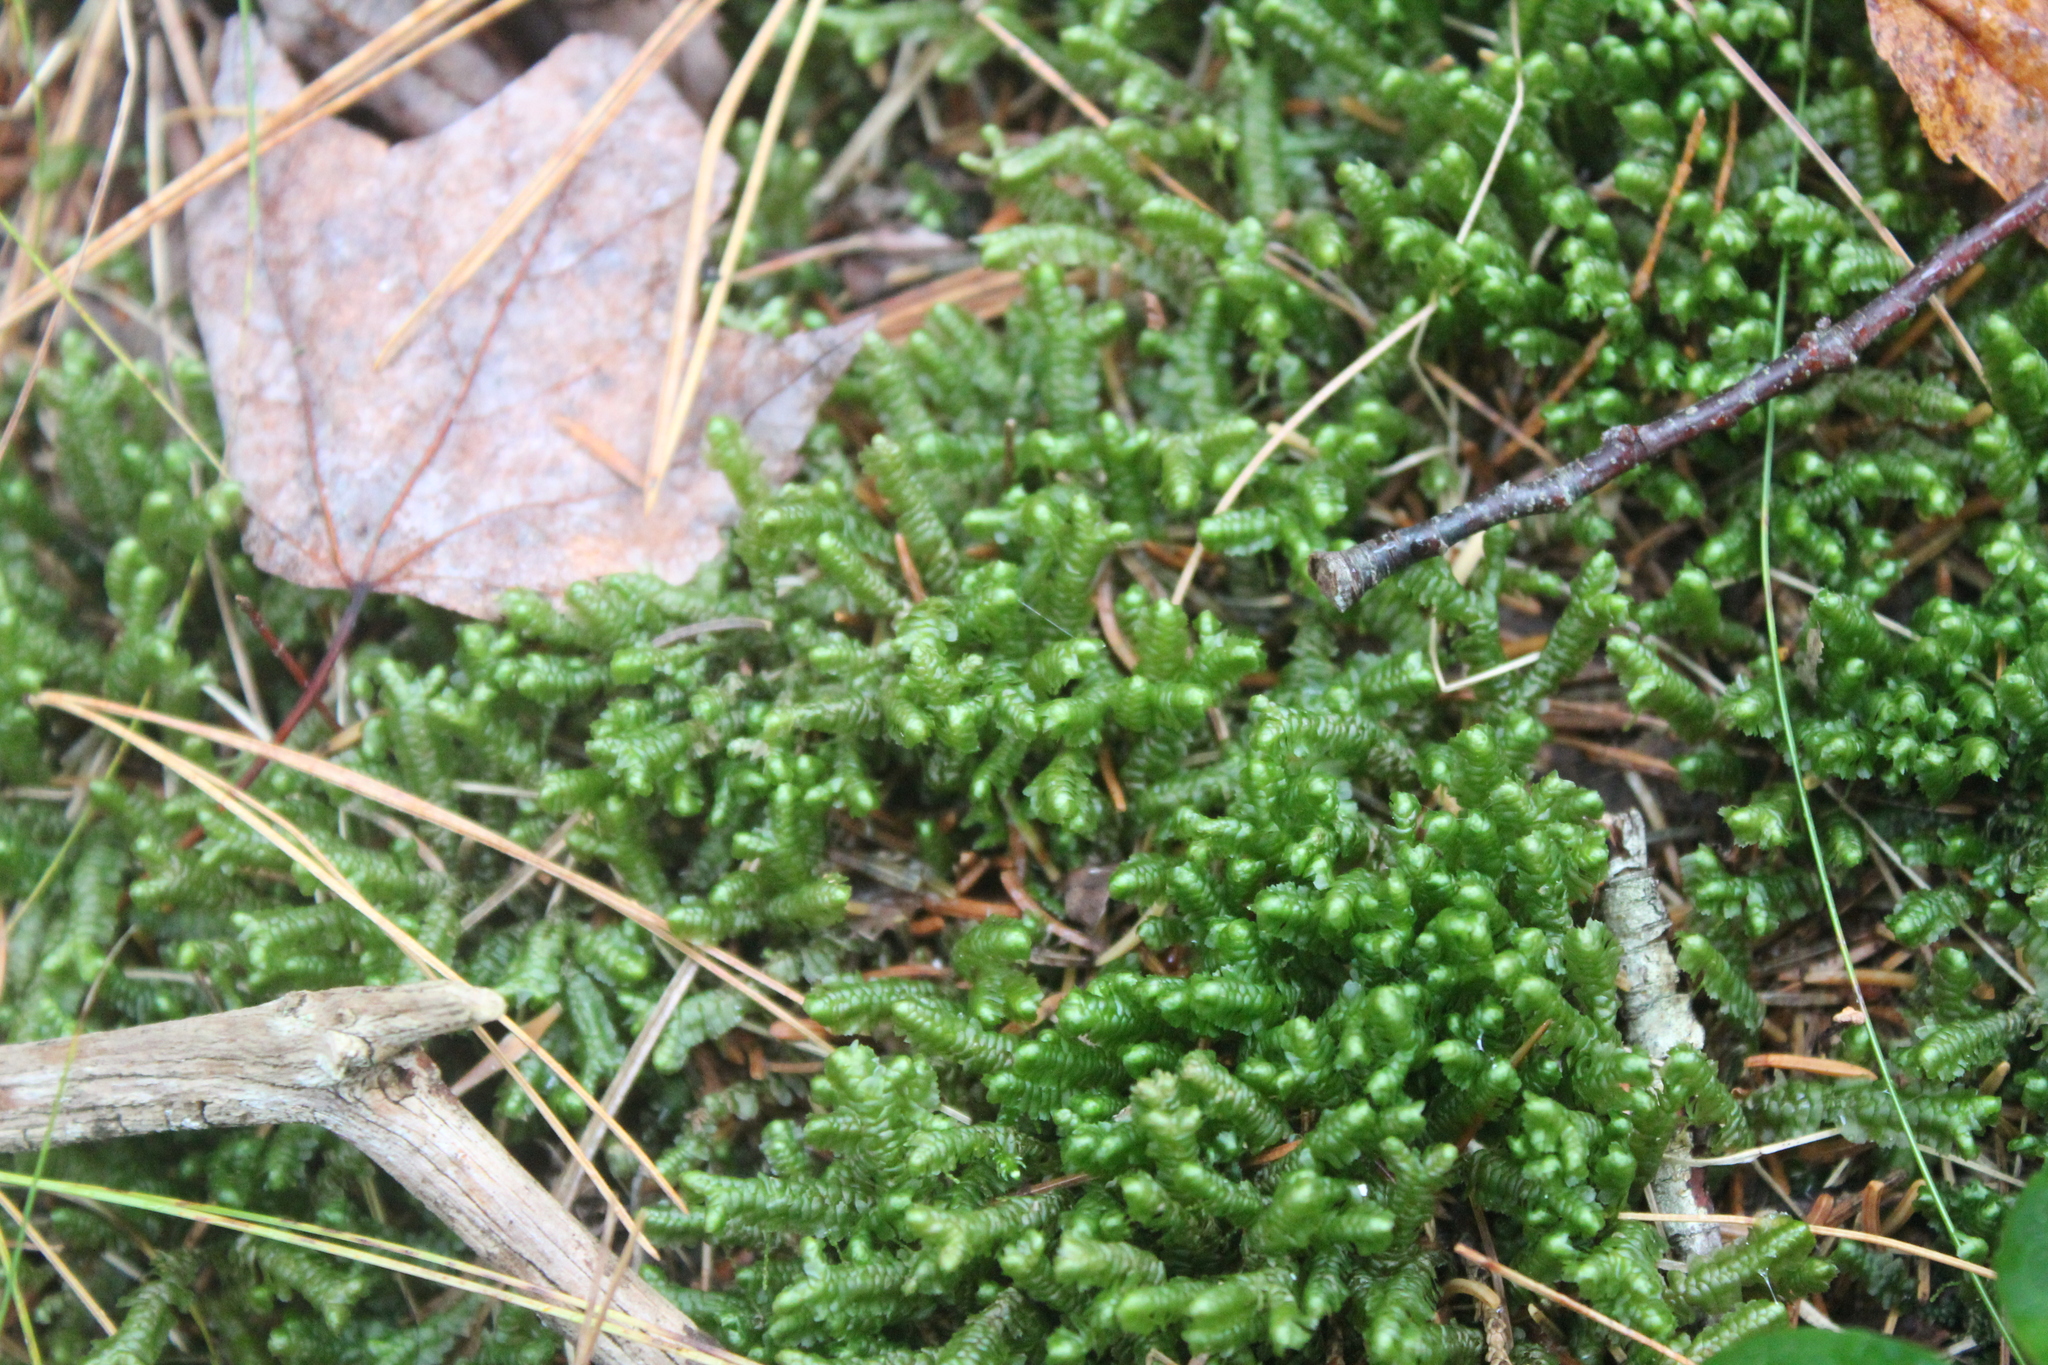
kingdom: Plantae
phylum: Marchantiophyta
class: Jungermanniopsida
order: Jungermanniales
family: Lepidoziaceae
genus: Bazzania
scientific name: Bazzania trilobata
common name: Three-lobed whipwort
